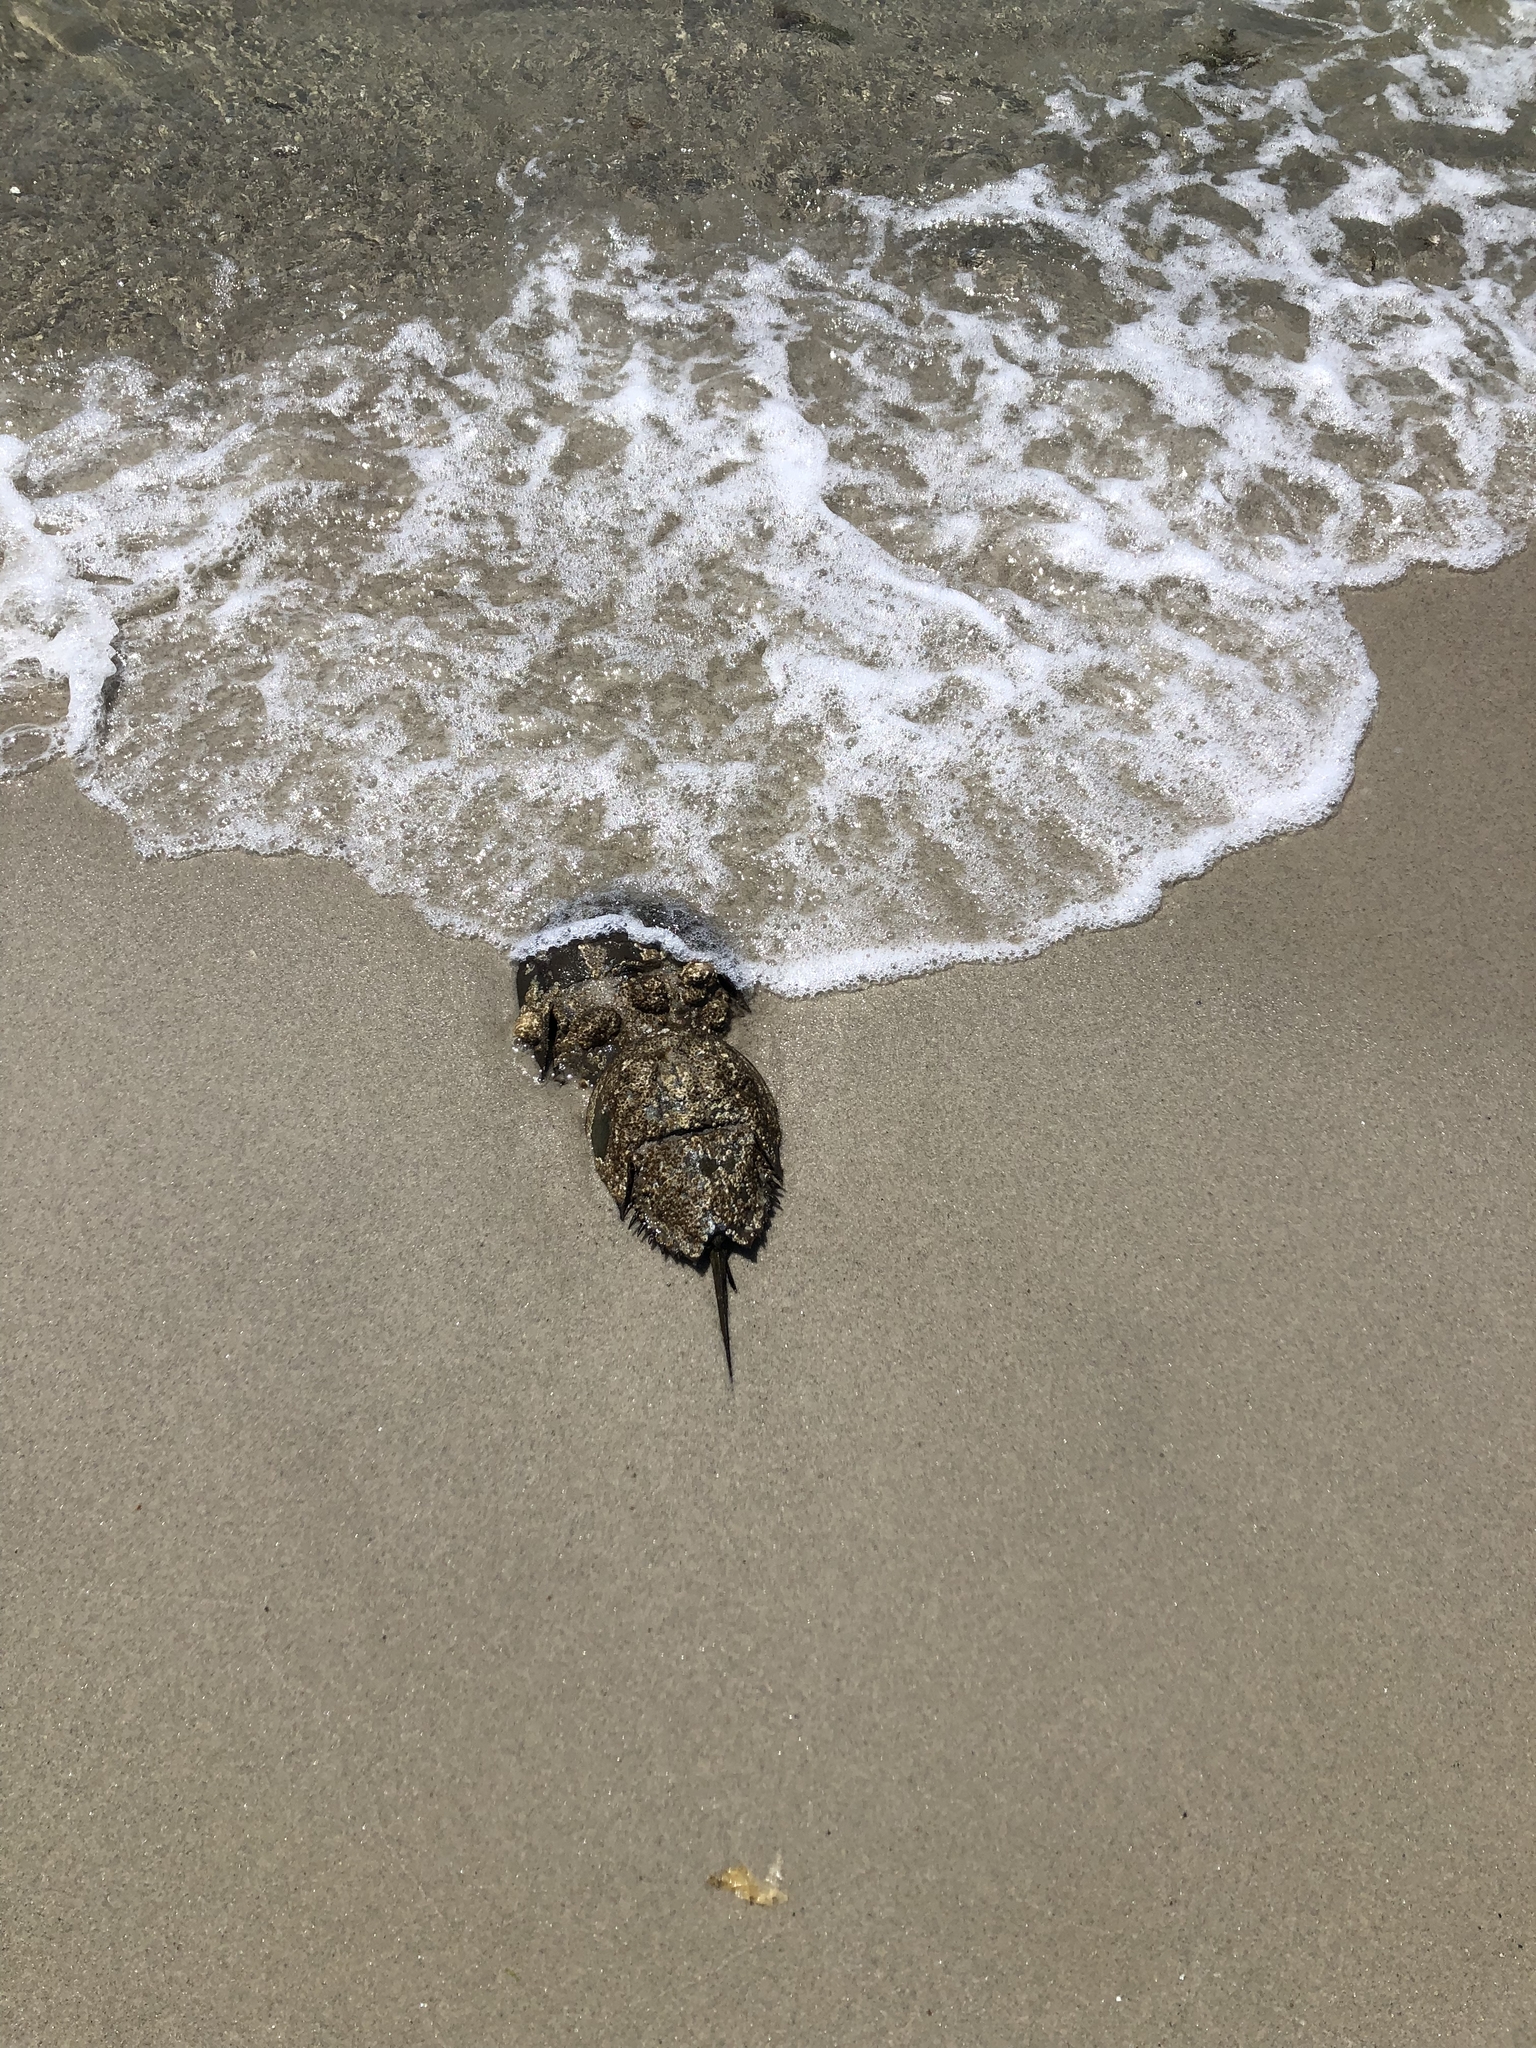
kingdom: Animalia
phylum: Arthropoda
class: Merostomata
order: Xiphosurida
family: Limulidae
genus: Limulus
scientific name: Limulus polyphemus
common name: Horseshoe crab
